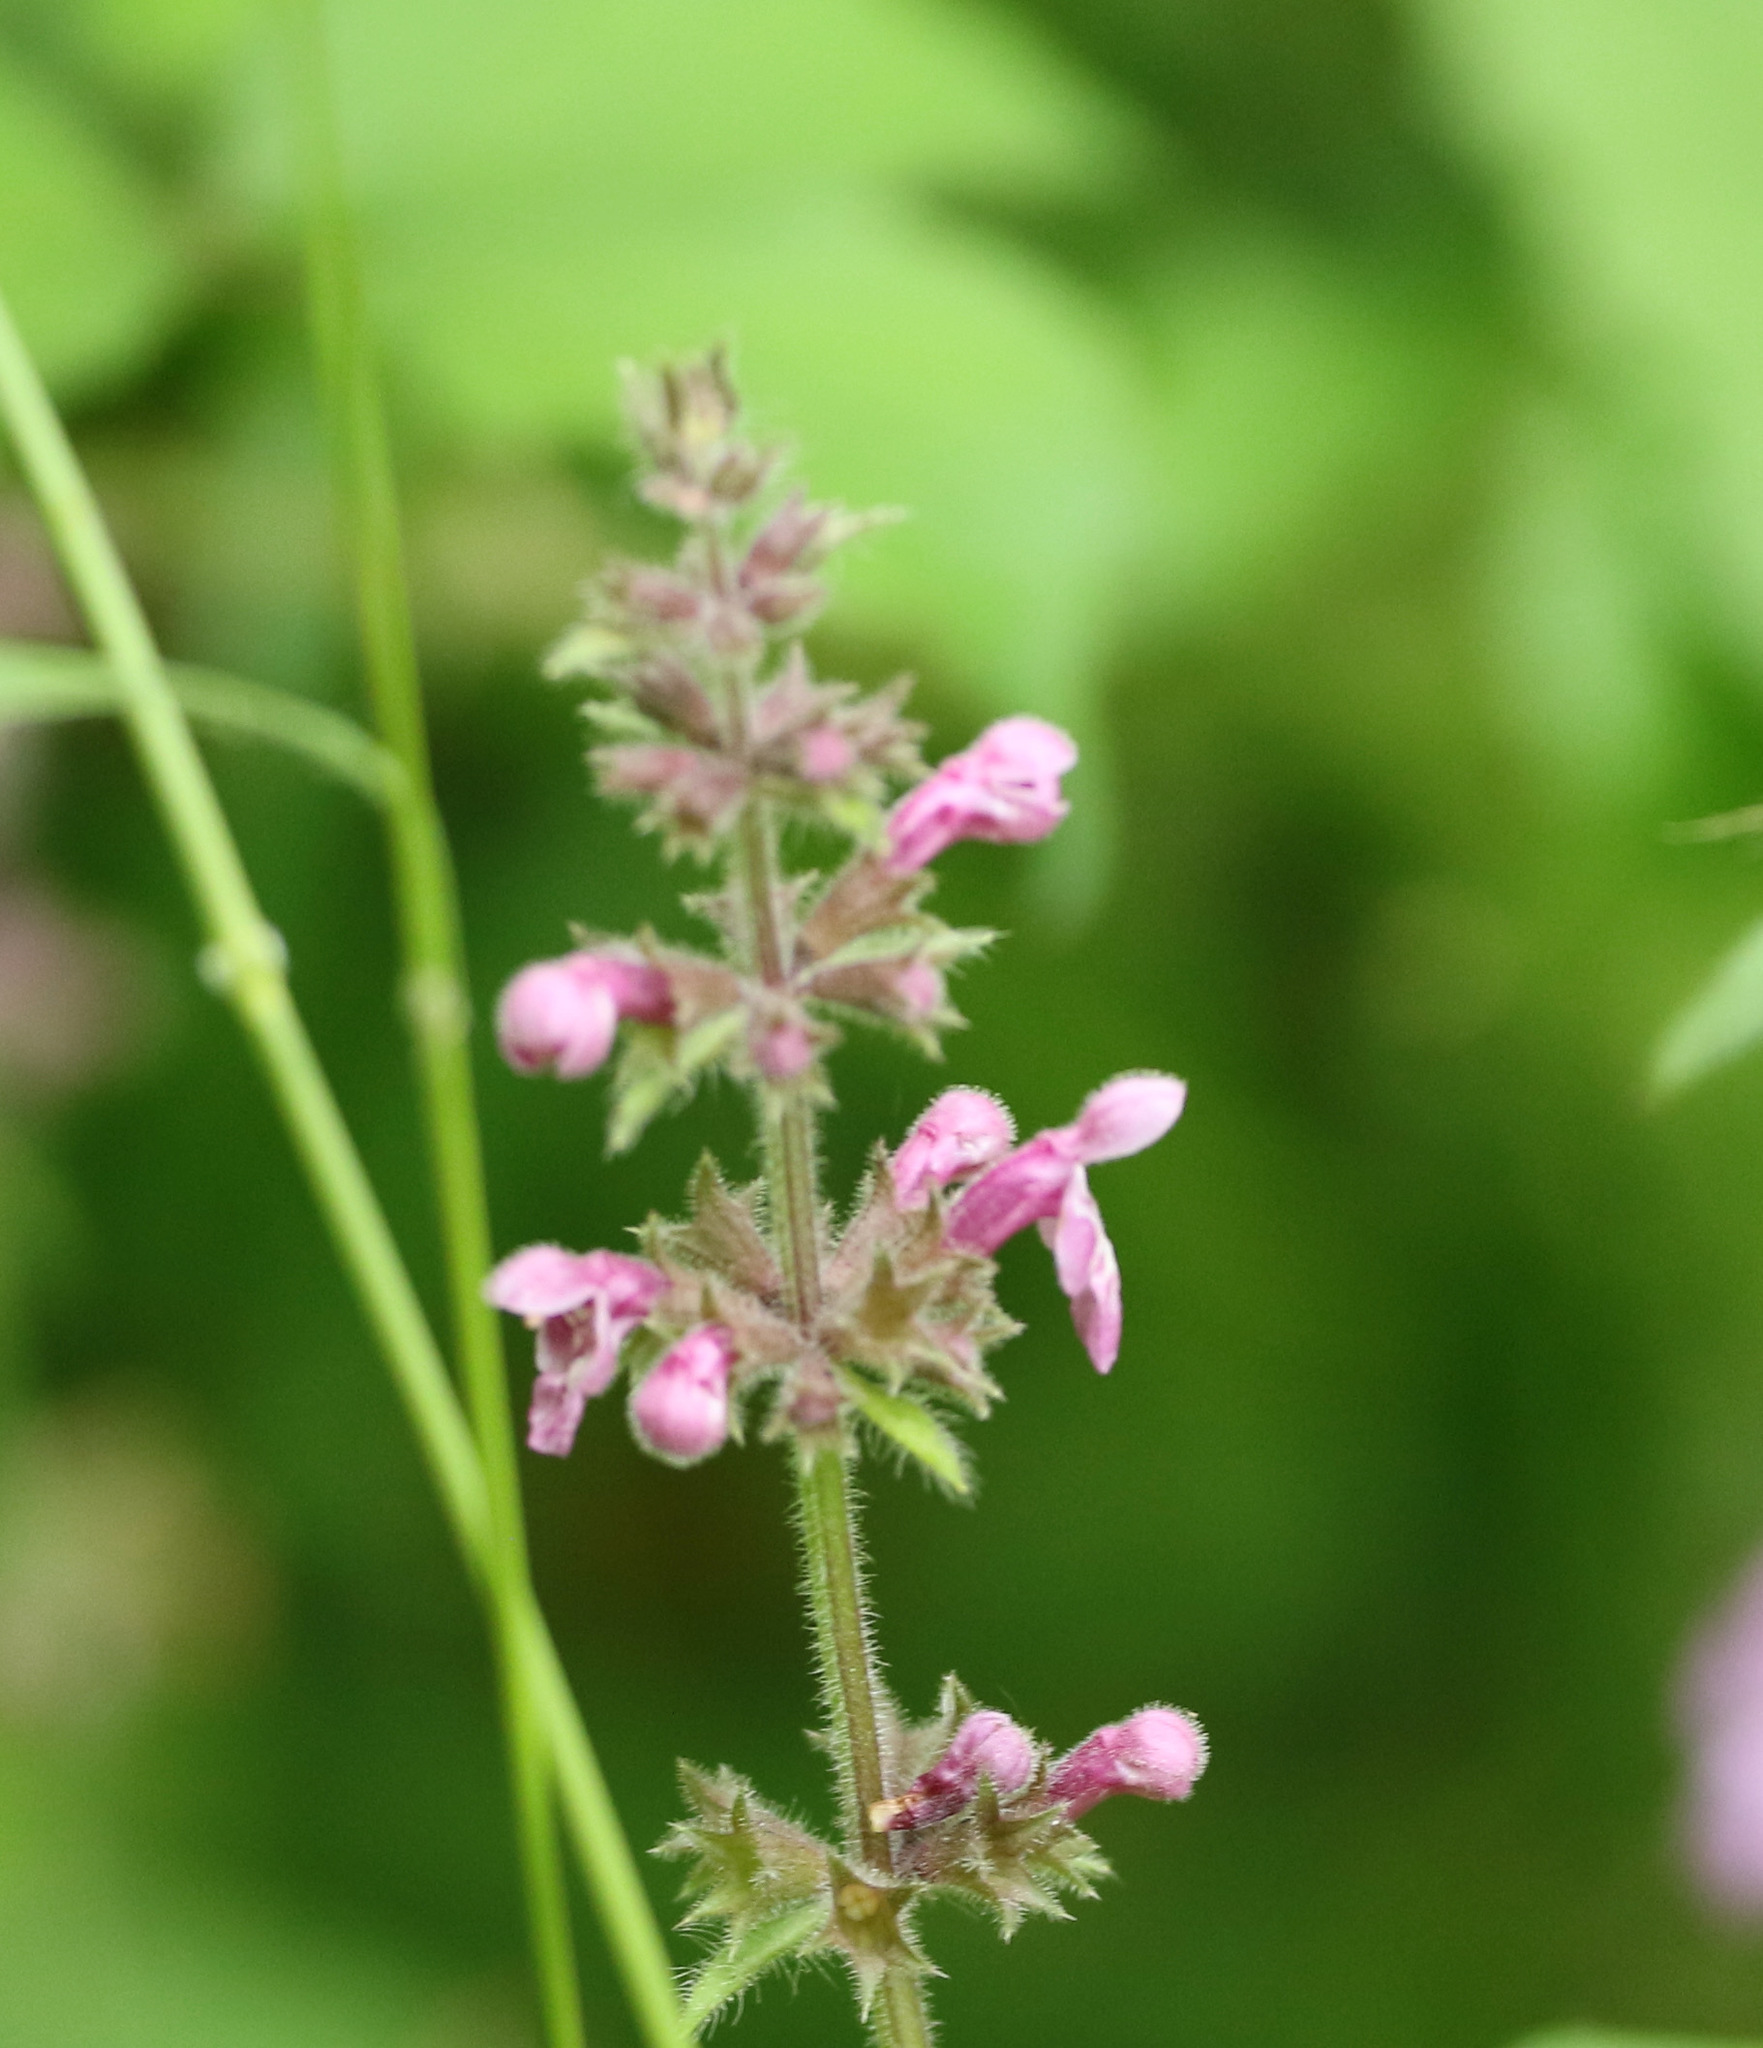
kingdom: Plantae
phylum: Tracheophyta
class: Magnoliopsida
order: Lamiales
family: Lamiaceae
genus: Stachys
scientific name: Stachys sylvatica
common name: Hedge woundwort
